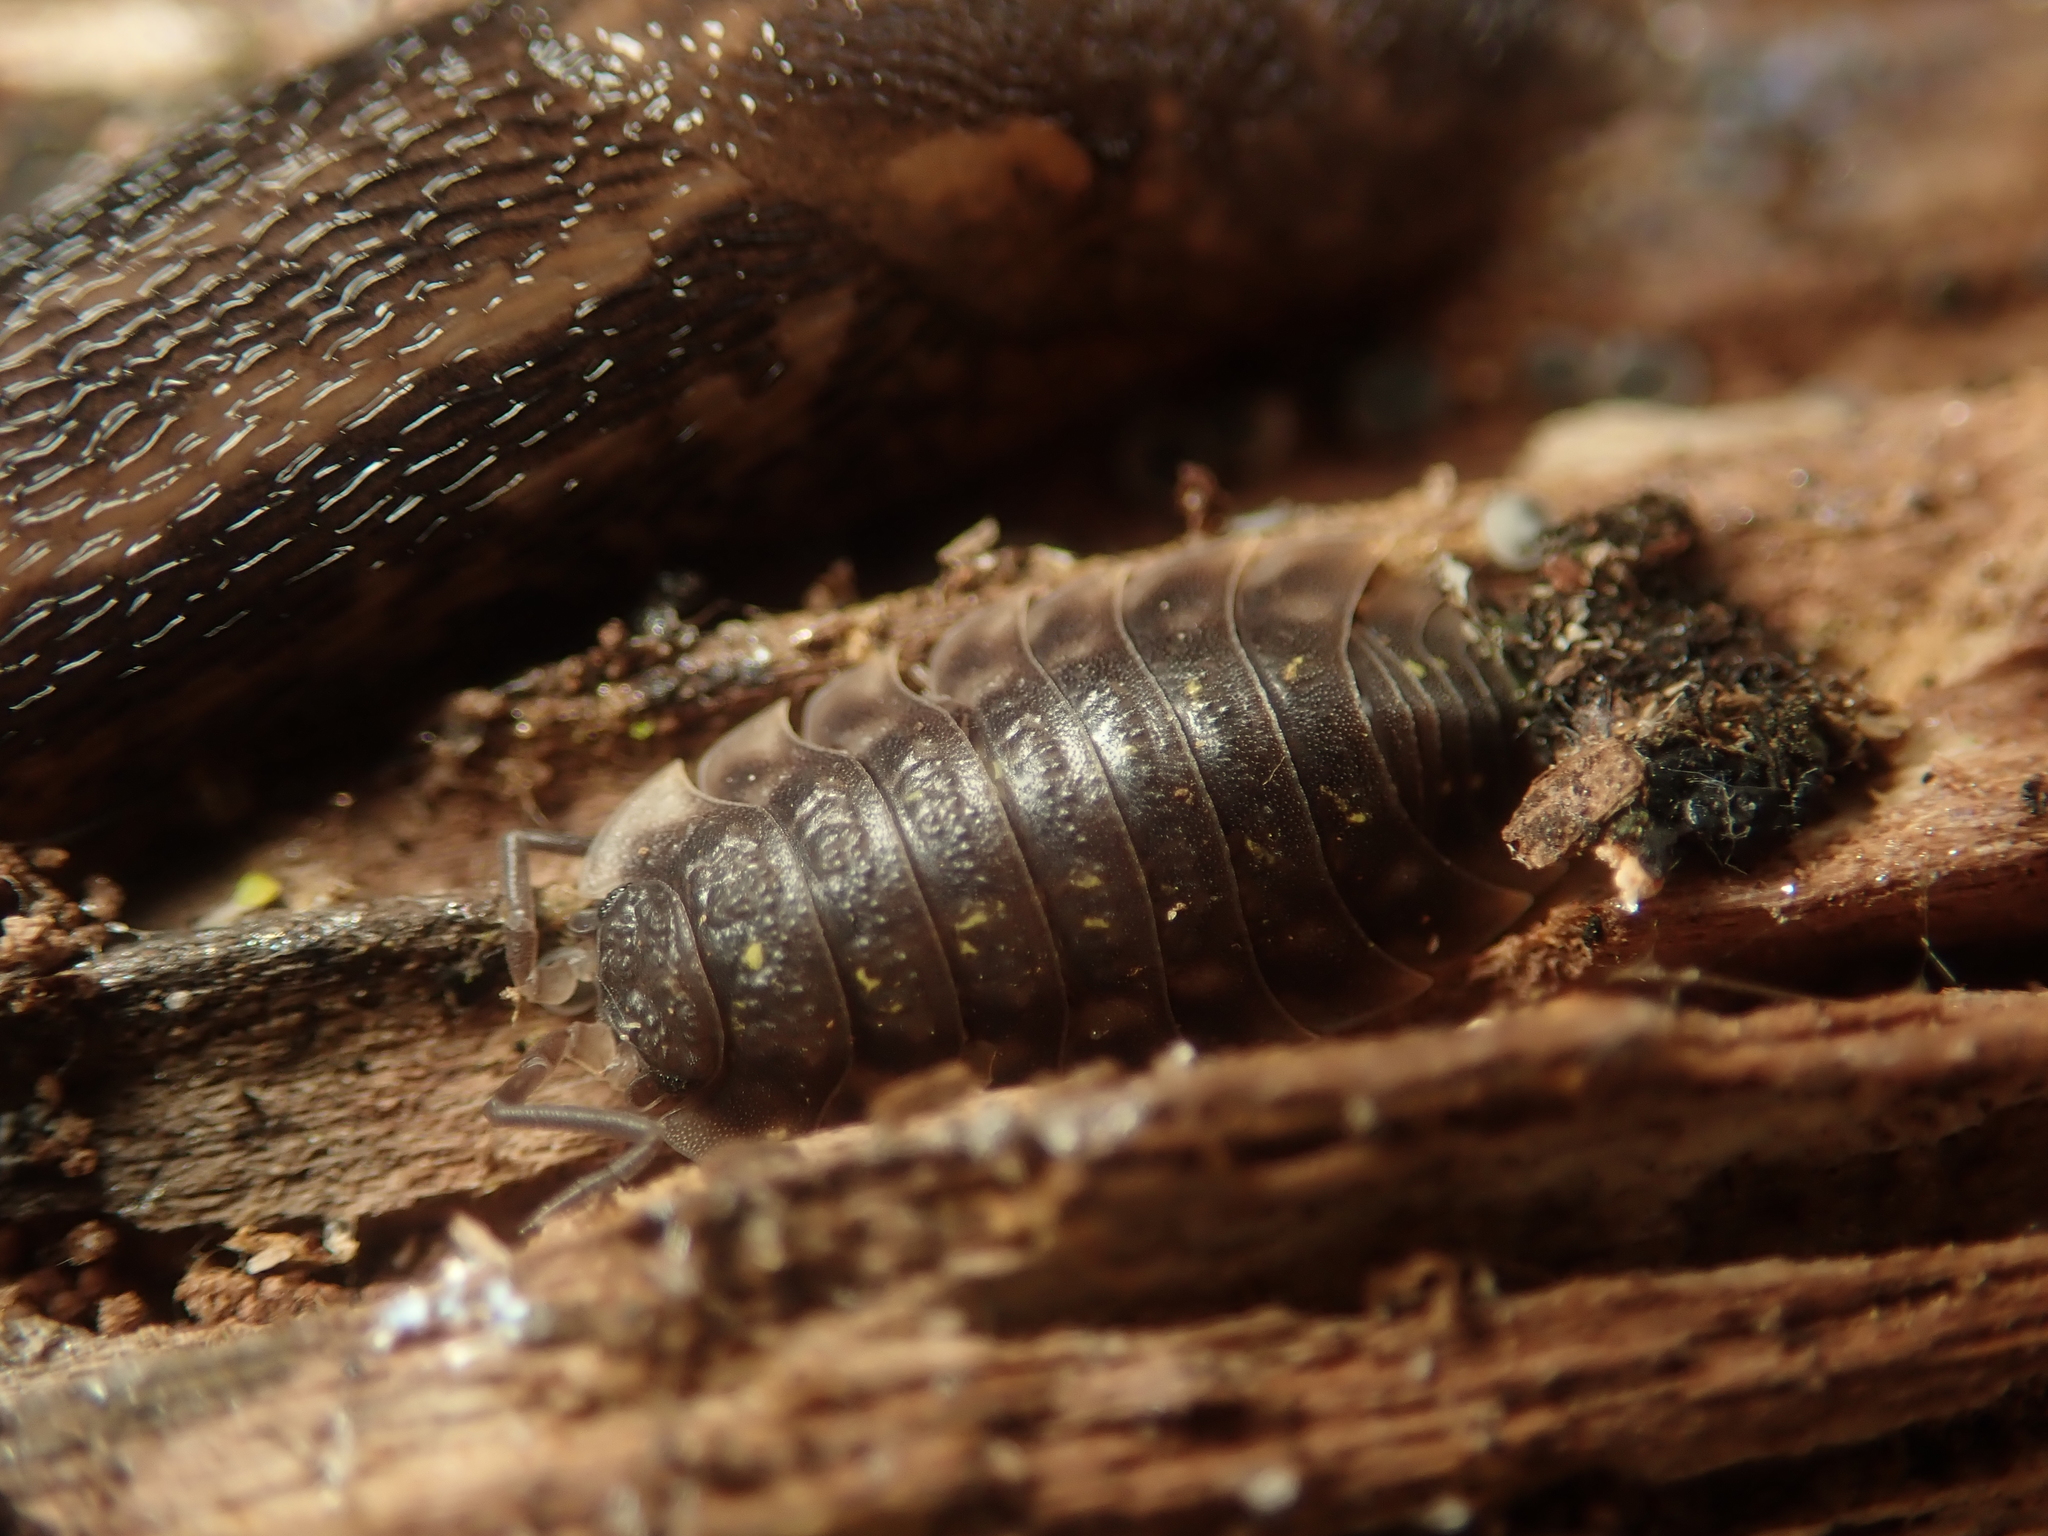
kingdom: Animalia
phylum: Arthropoda
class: Malacostraca
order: Isopoda
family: Oniscidae
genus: Oniscus
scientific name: Oniscus asellus
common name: Common shiny woodlouse
